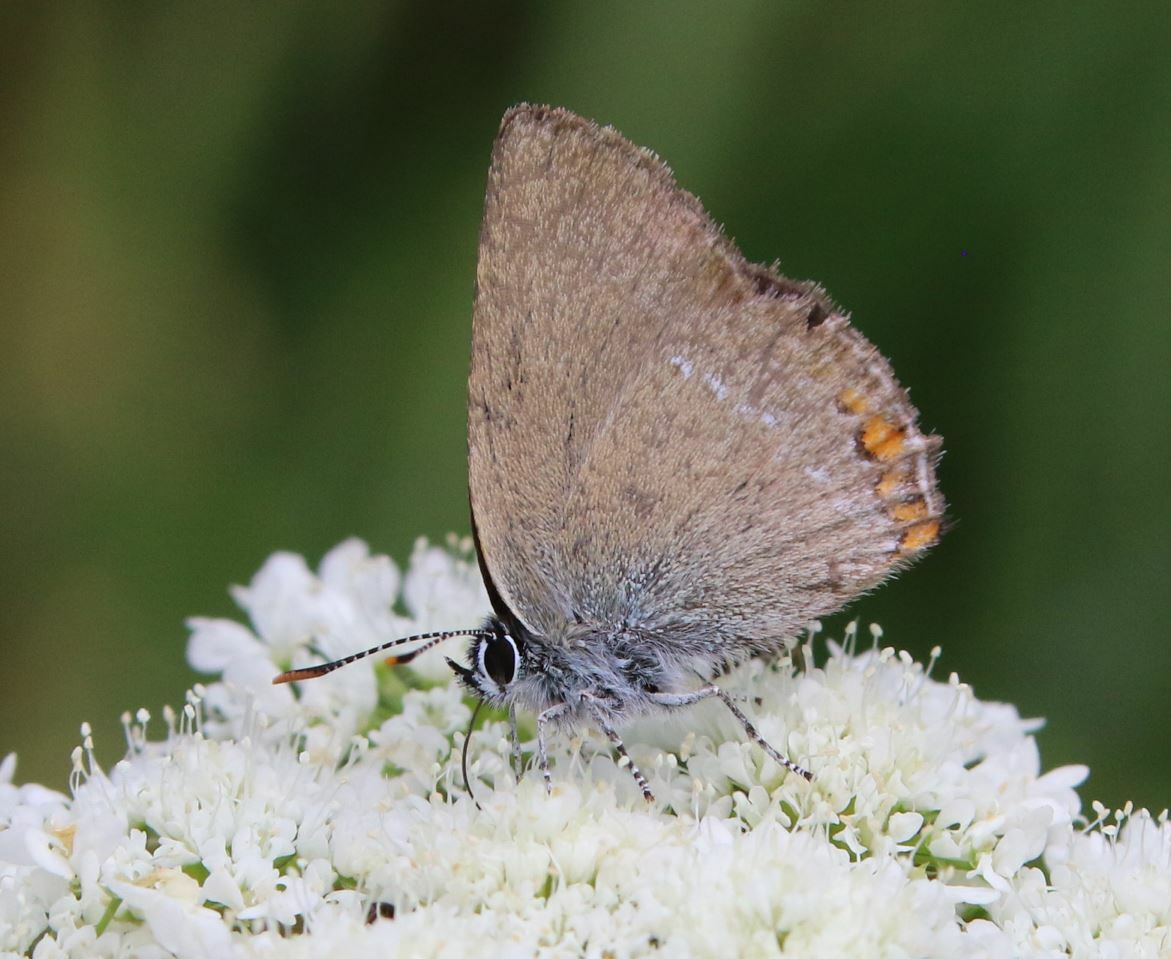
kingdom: Animalia
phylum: Arthropoda
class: Insecta
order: Lepidoptera
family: Lycaenidae
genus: Strymon
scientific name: Strymon acaciae
